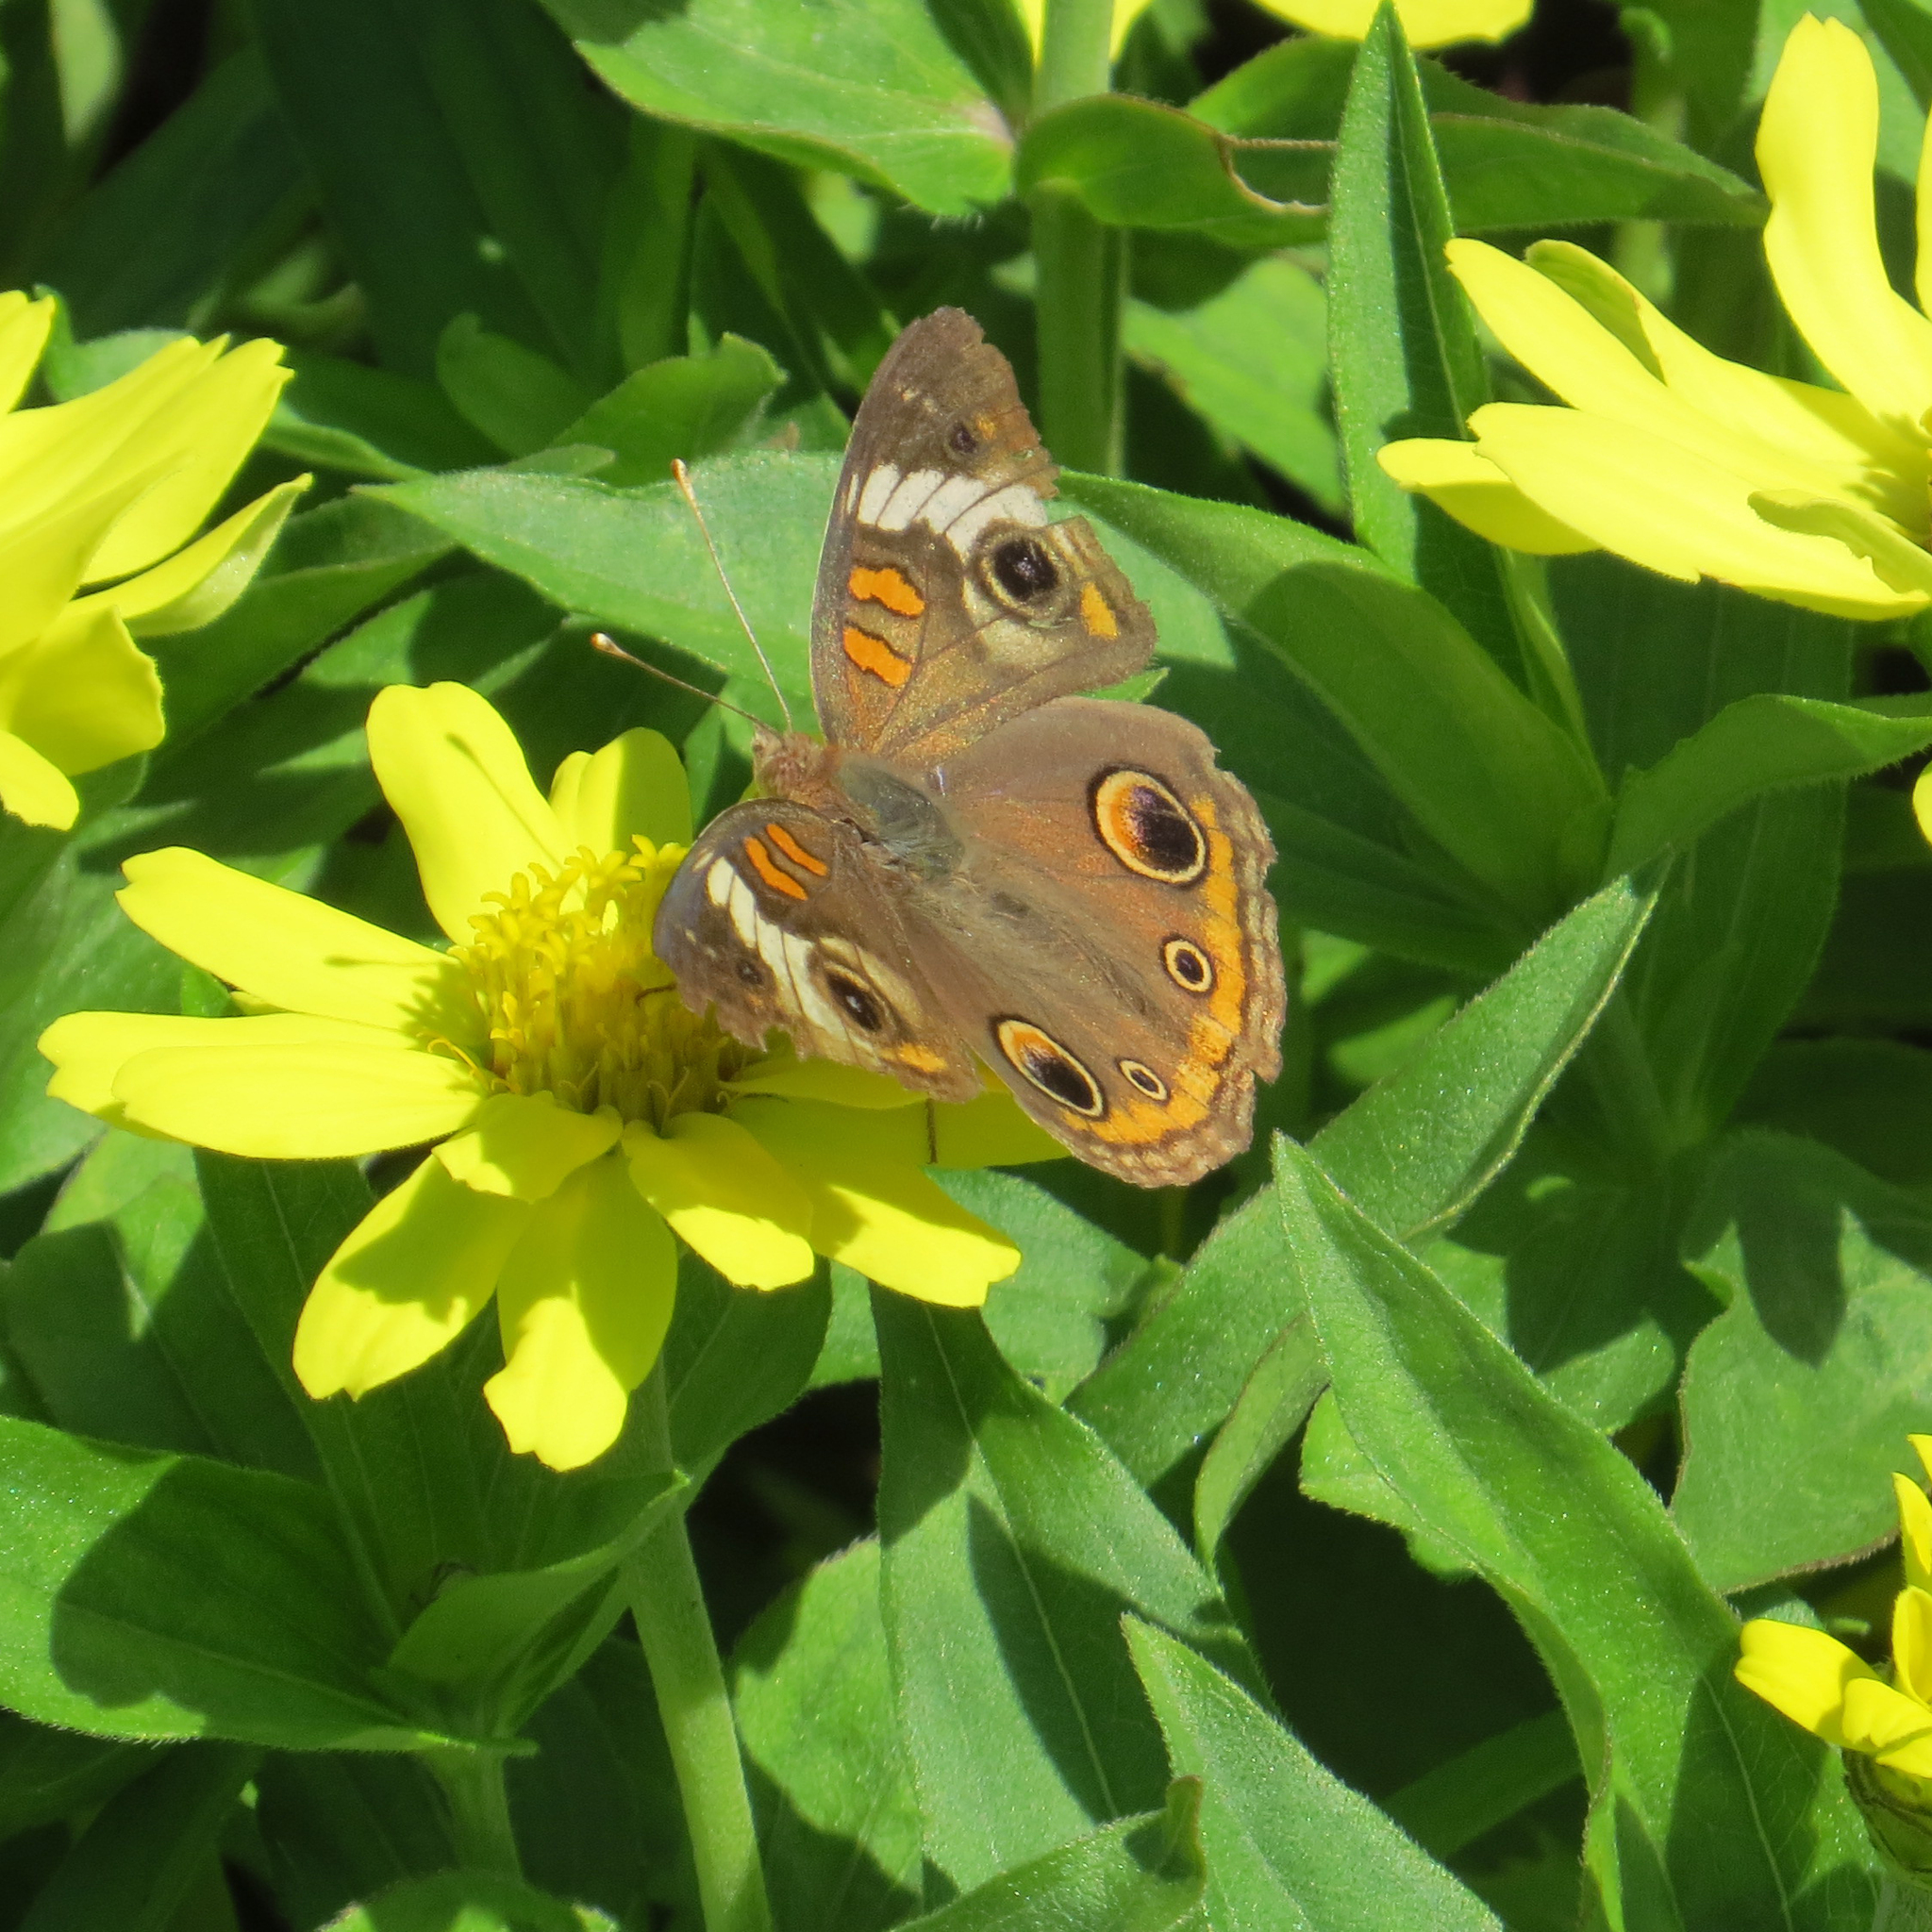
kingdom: Animalia
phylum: Arthropoda
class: Insecta
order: Lepidoptera
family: Nymphalidae
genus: Junonia
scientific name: Junonia coenia
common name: Common buckeye
